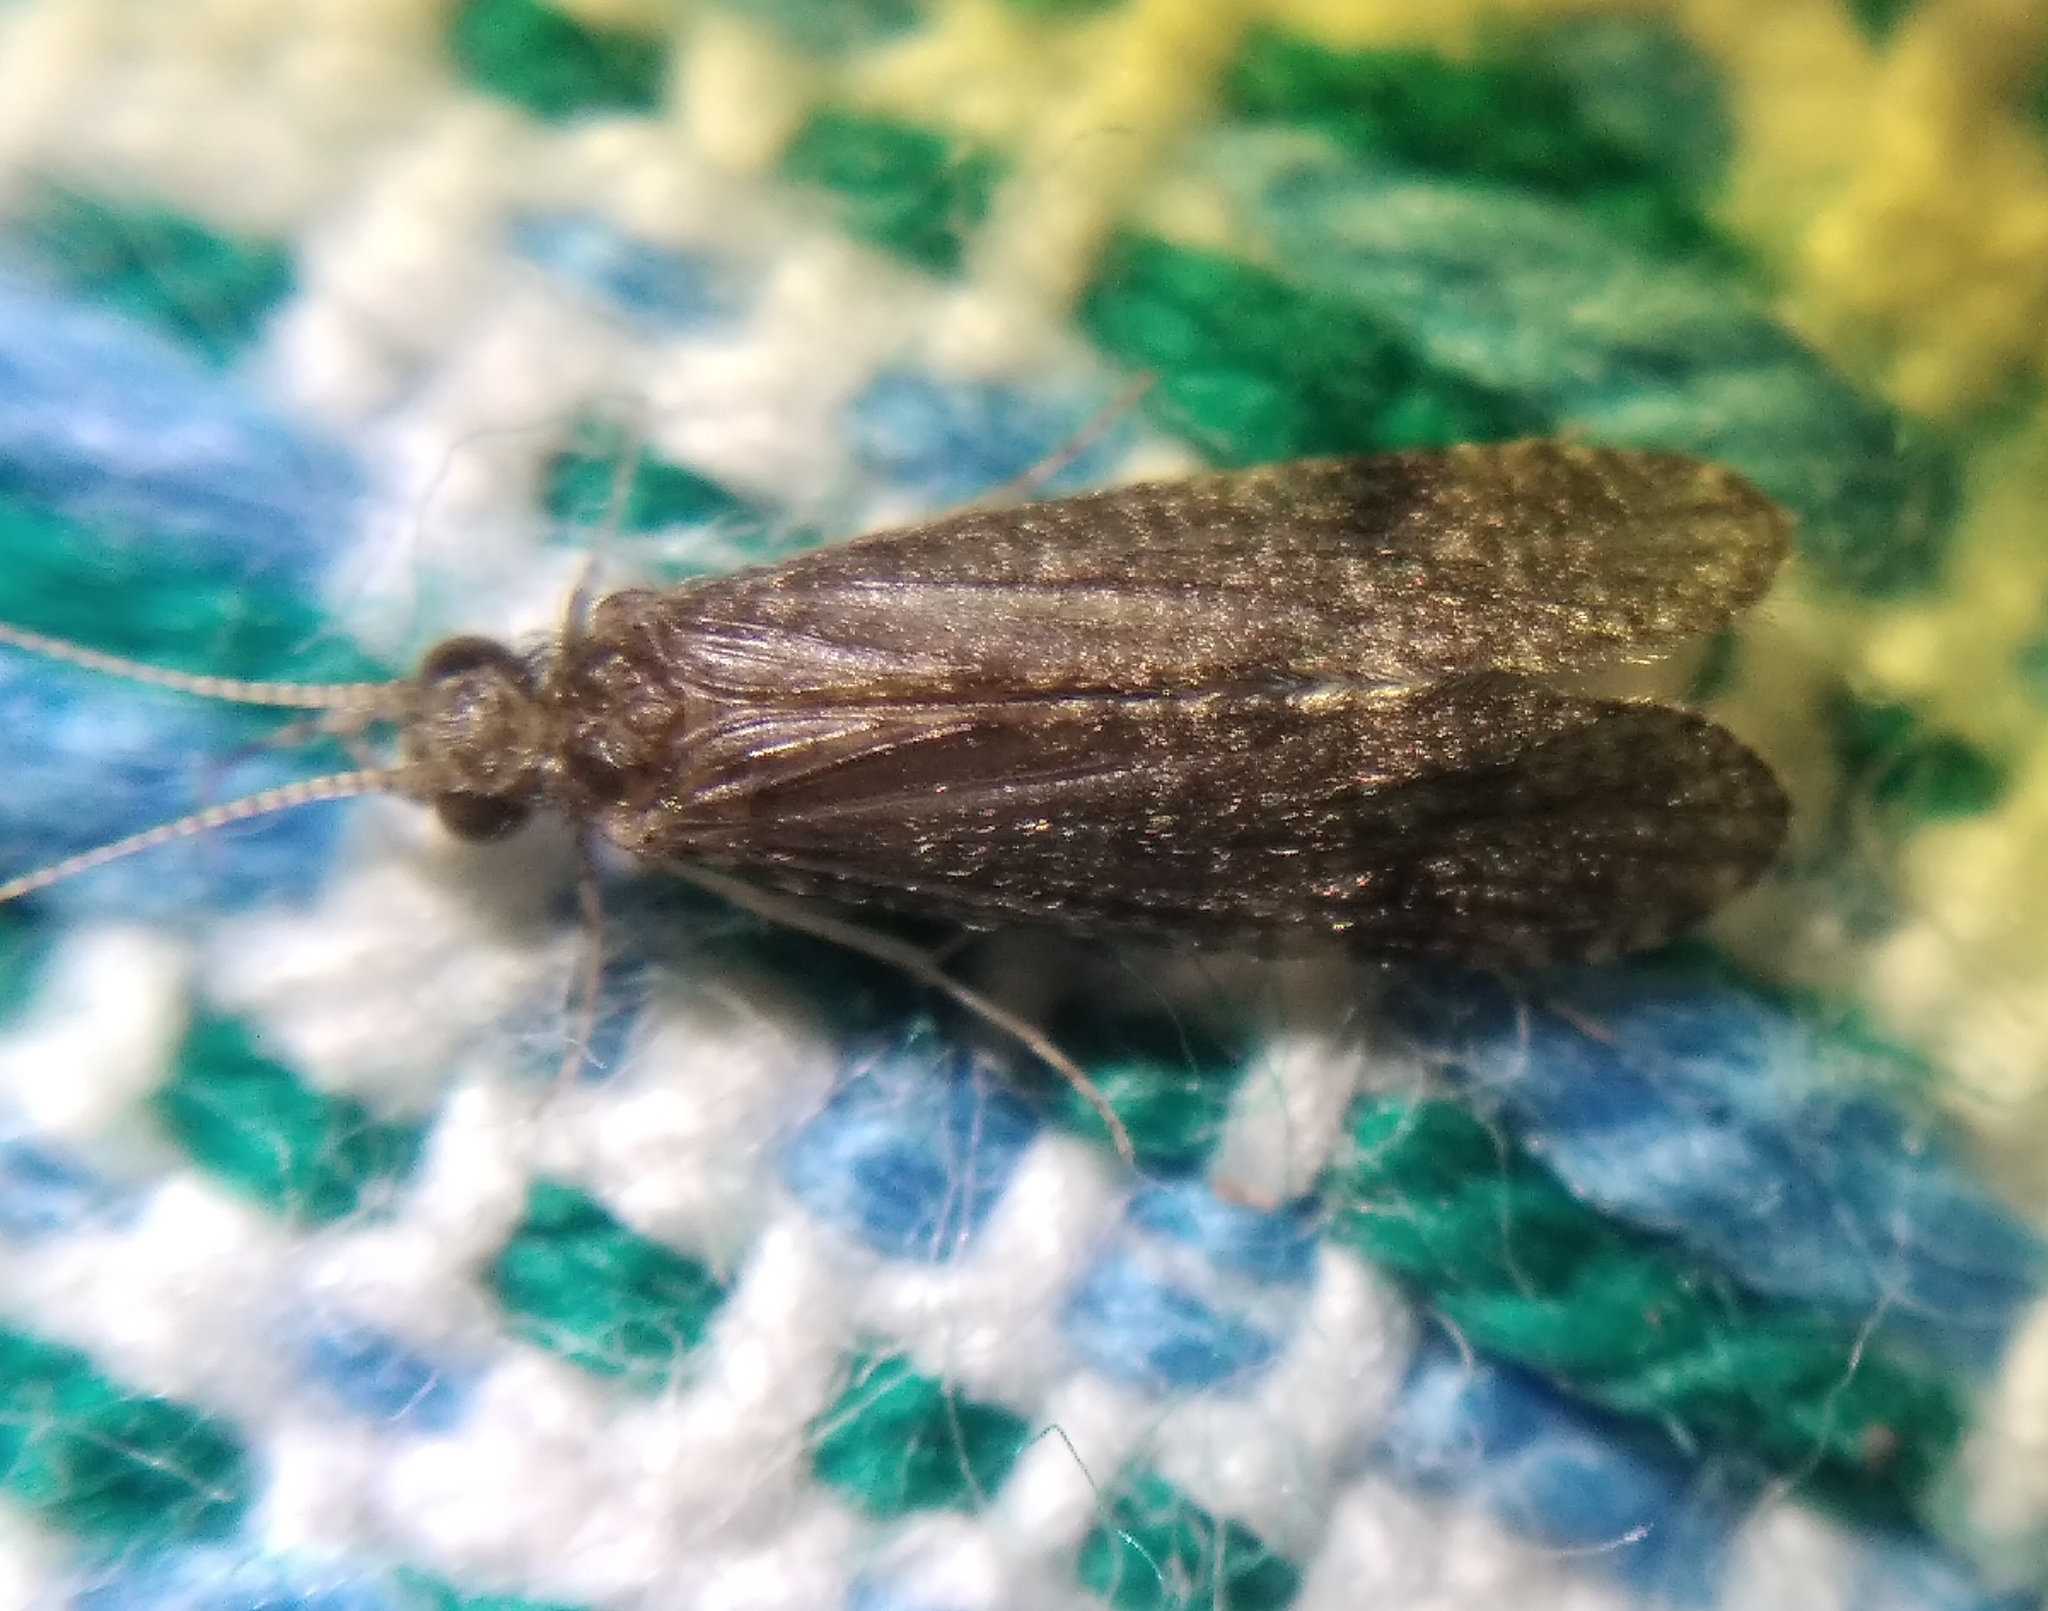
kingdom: Animalia
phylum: Arthropoda
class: Insecta
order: Trichoptera
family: Ecnomidae
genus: Ecnomus
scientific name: Ecnomus tenellus
